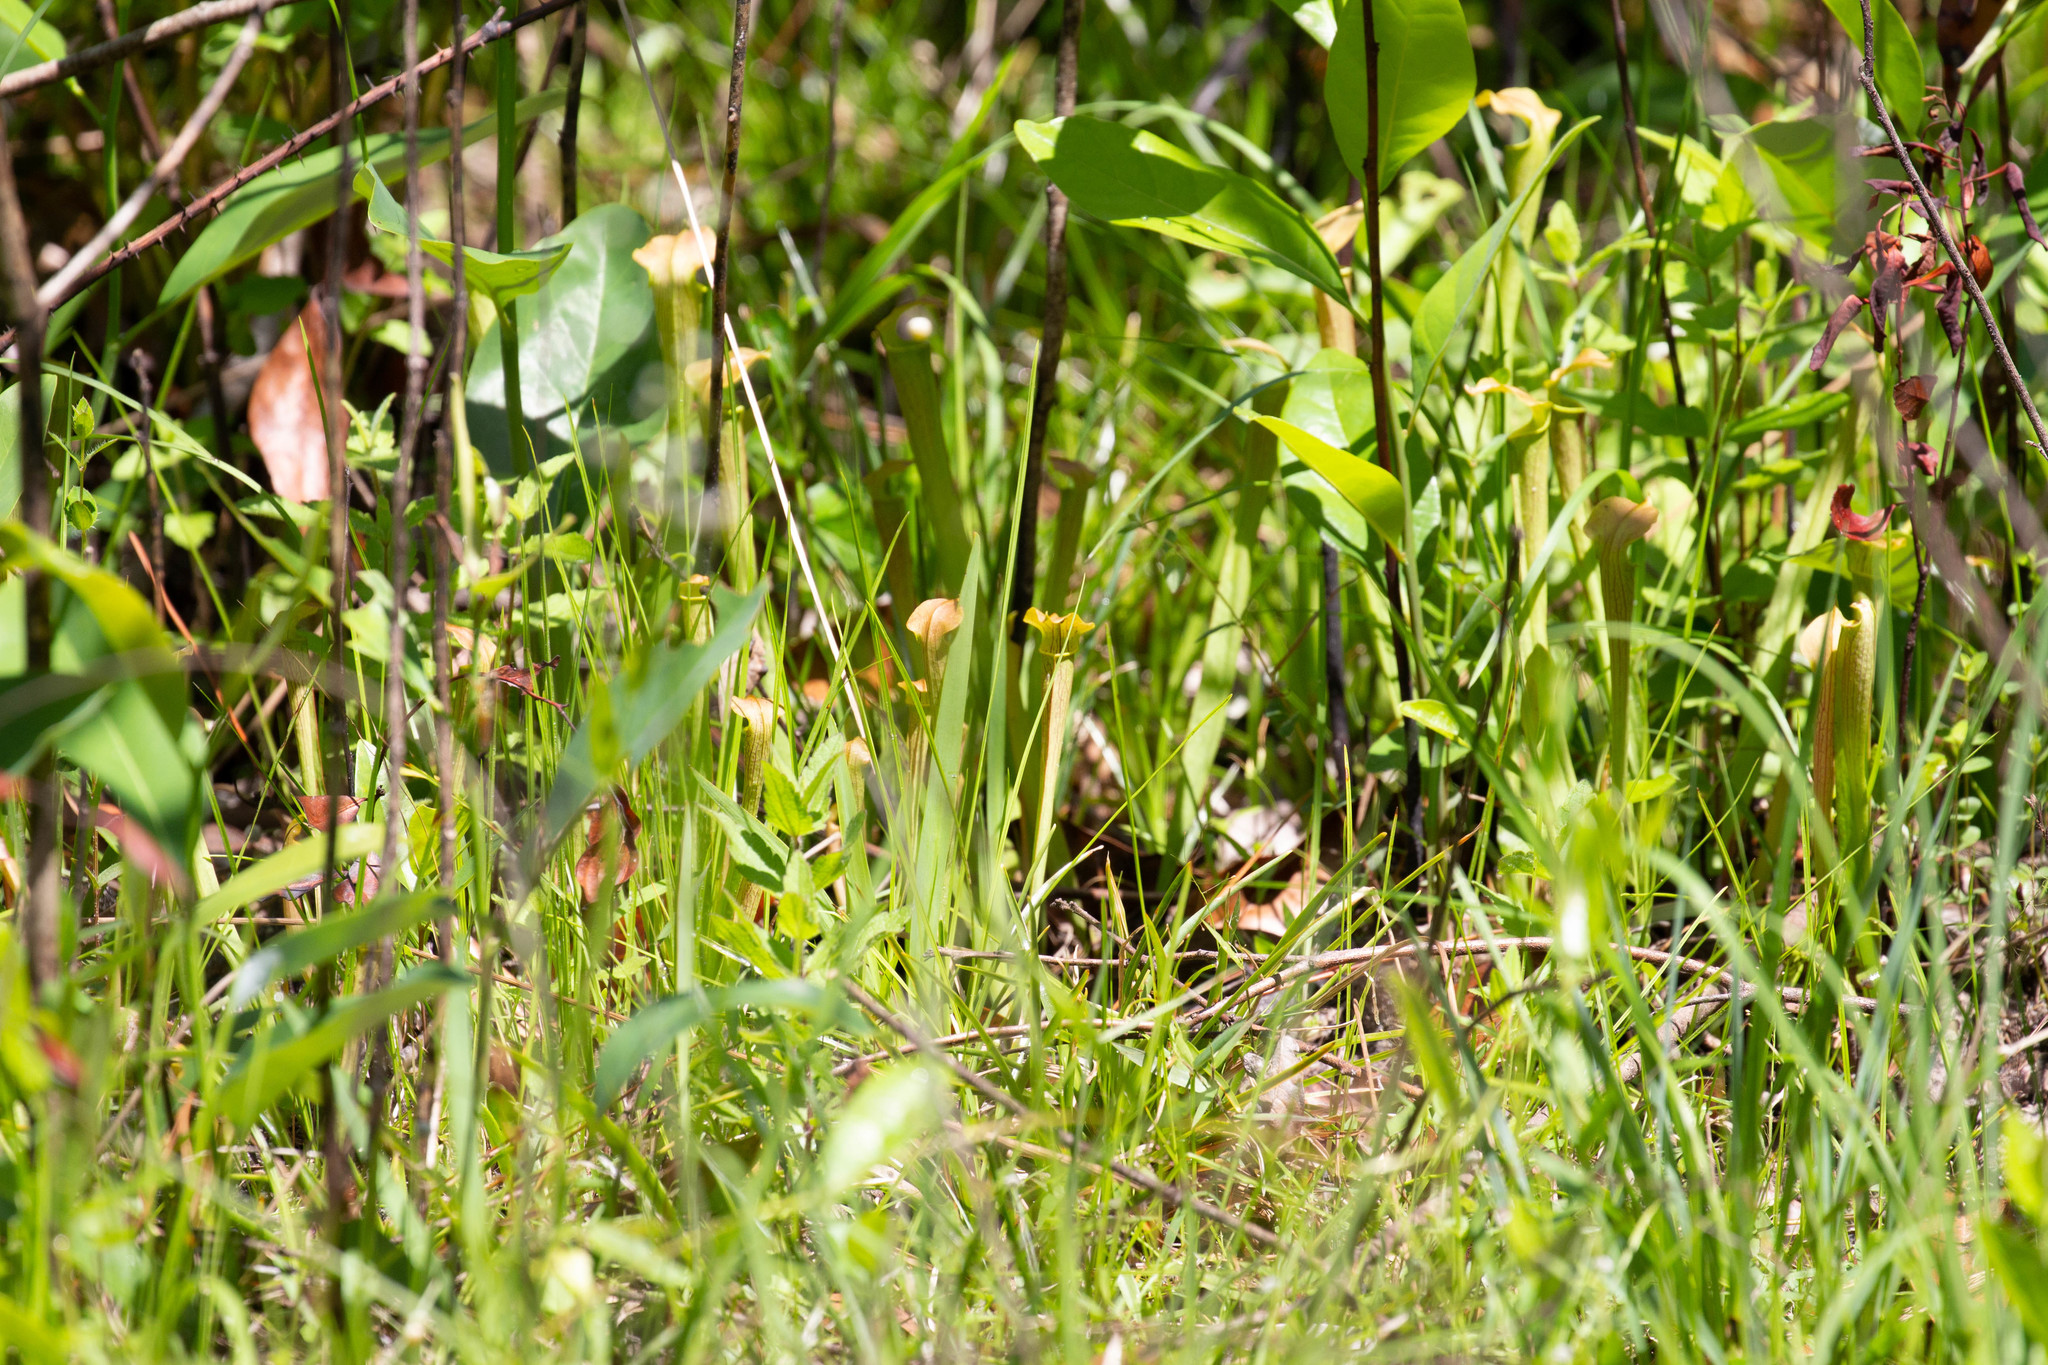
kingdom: Plantae
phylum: Tracheophyta
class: Magnoliopsida
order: Ericales
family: Sarraceniaceae
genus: Sarracenia
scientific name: Sarracenia alata
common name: Yellow trumpets
